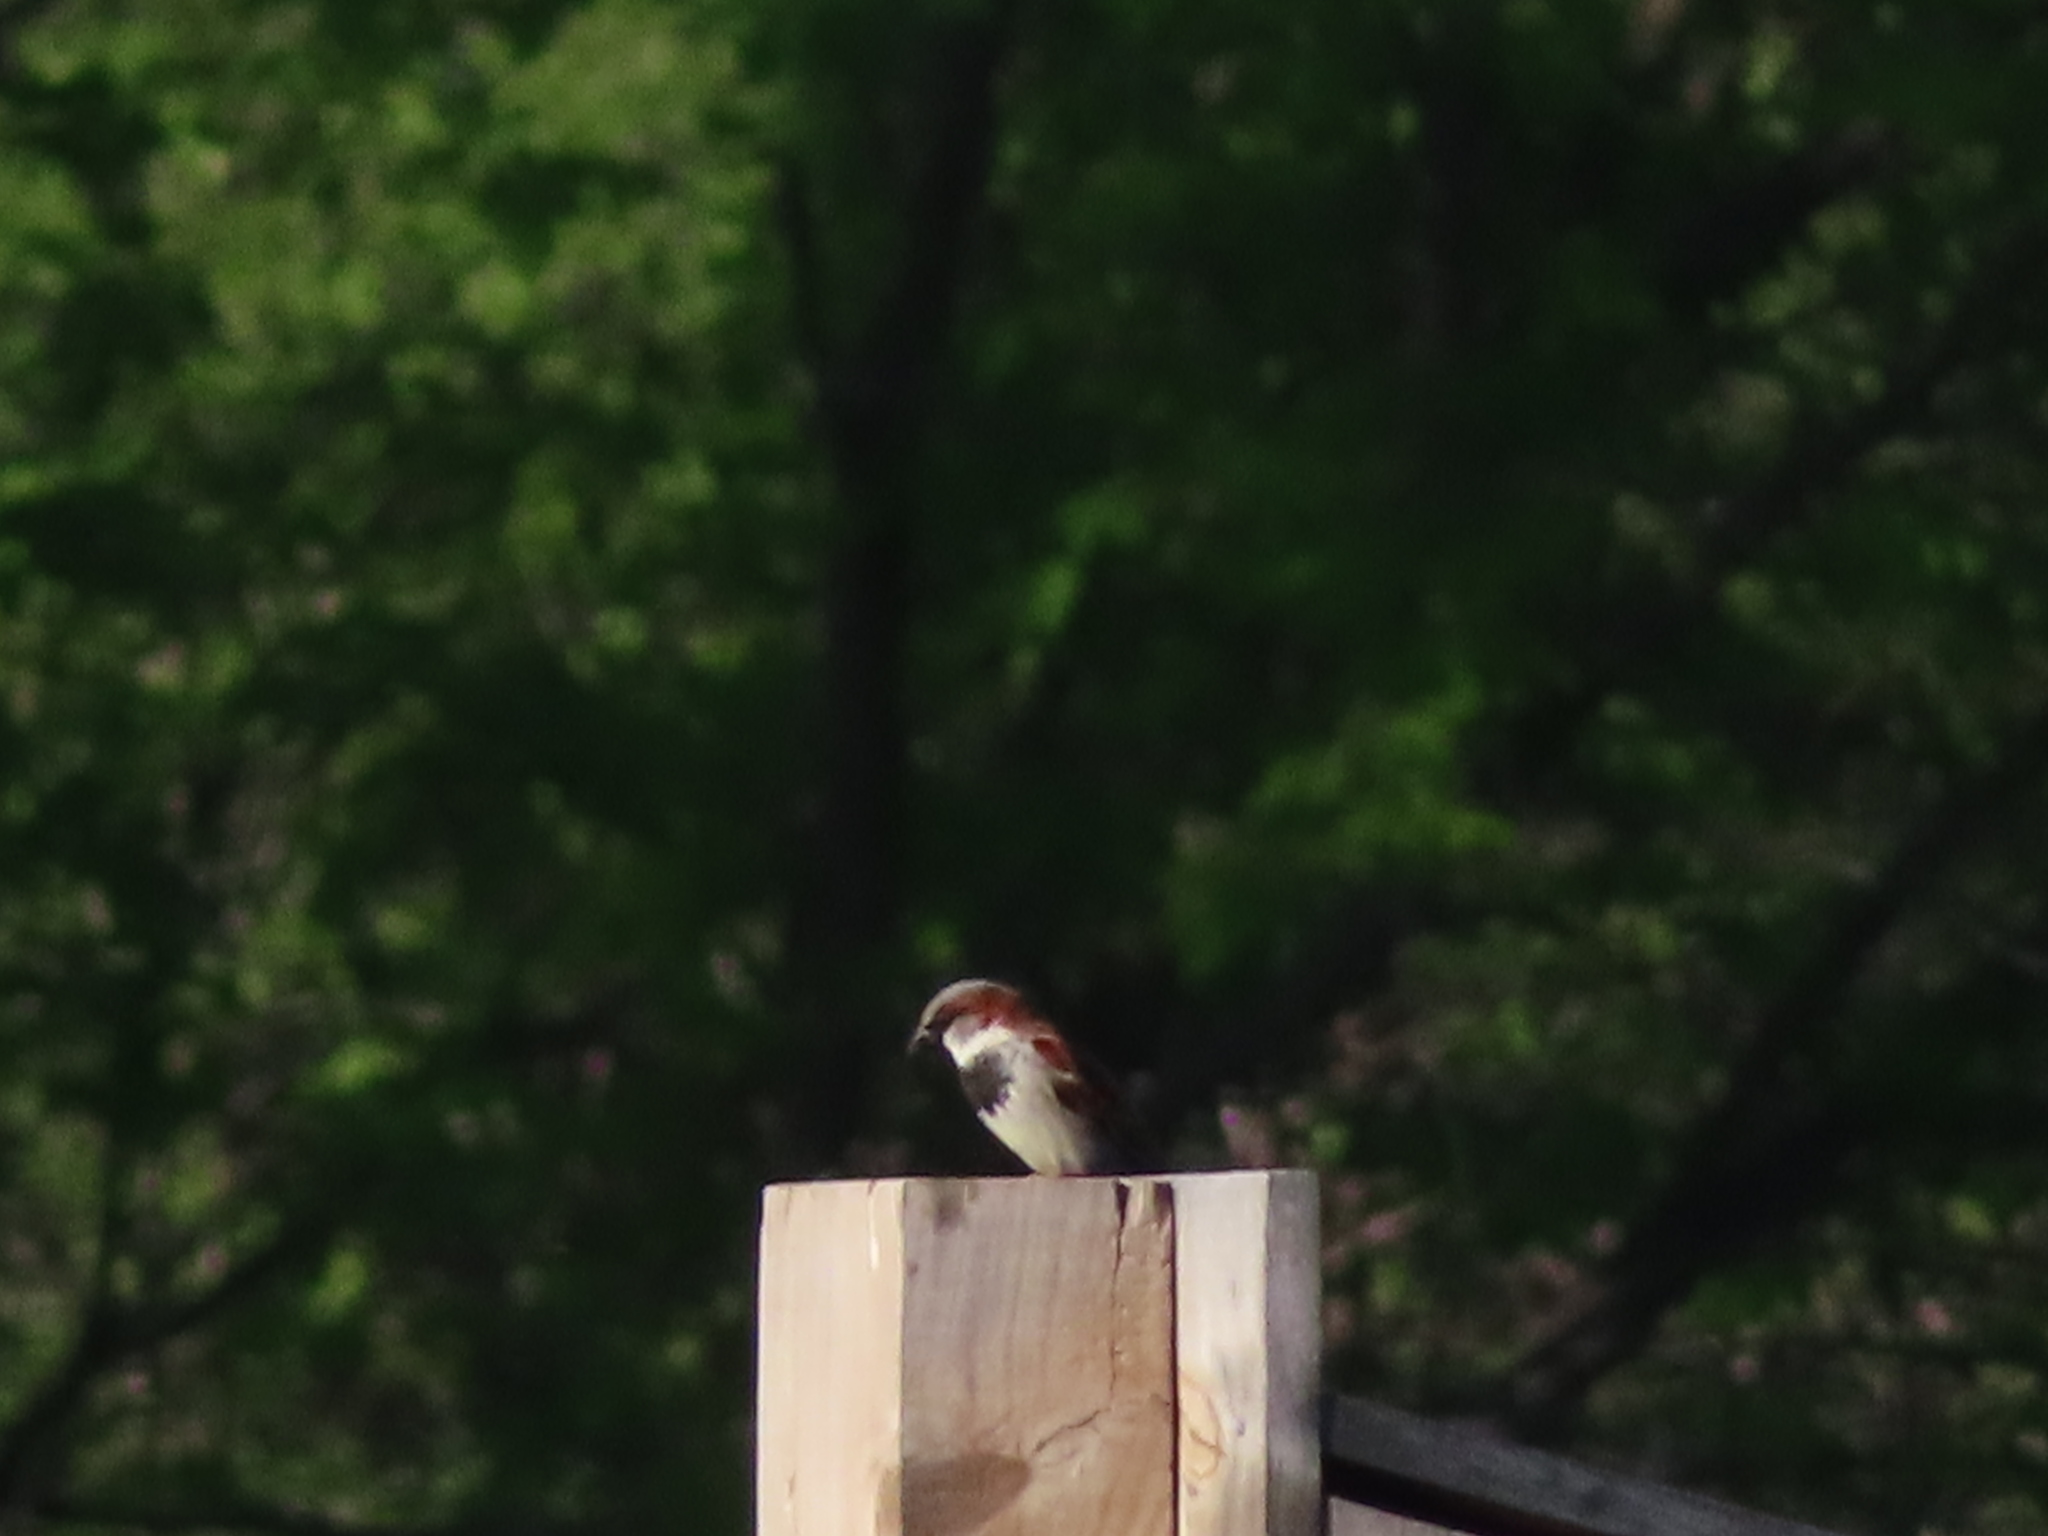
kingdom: Animalia
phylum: Chordata
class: Aves
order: Passeriformes
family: Passeridae
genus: Passer
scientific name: Passer domesticus
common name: House sparrow
